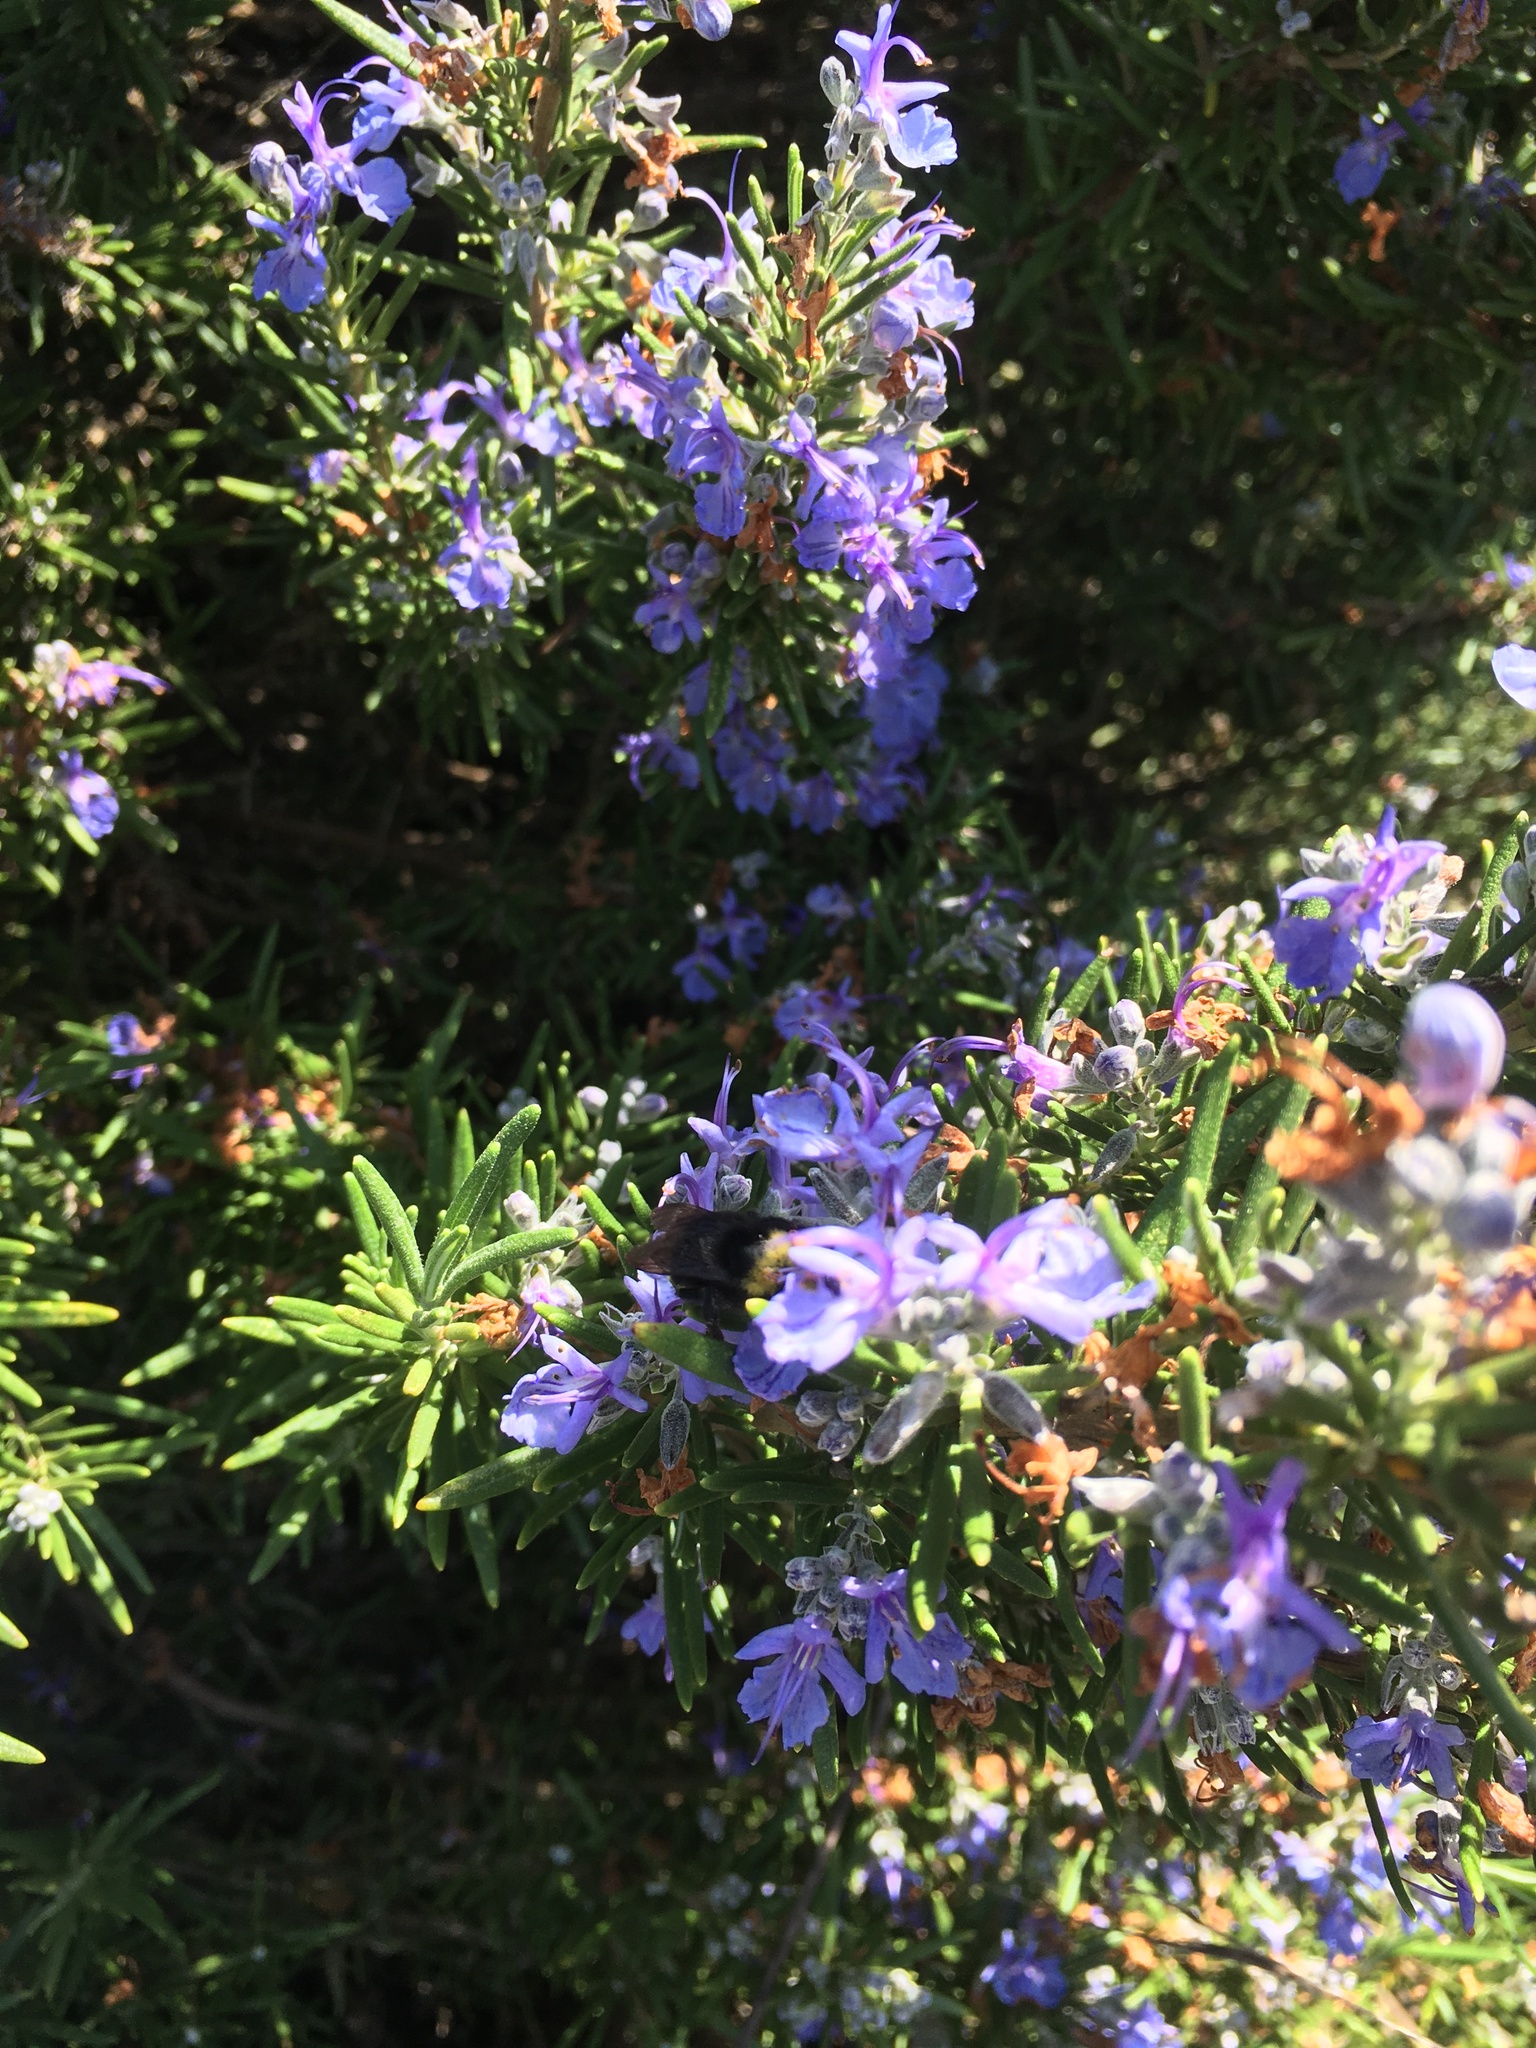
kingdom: Animalia
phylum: Arthropoda
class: Insecta
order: Hymenoptera
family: Apidae
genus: Pyrobombus
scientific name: Pyrobombus
